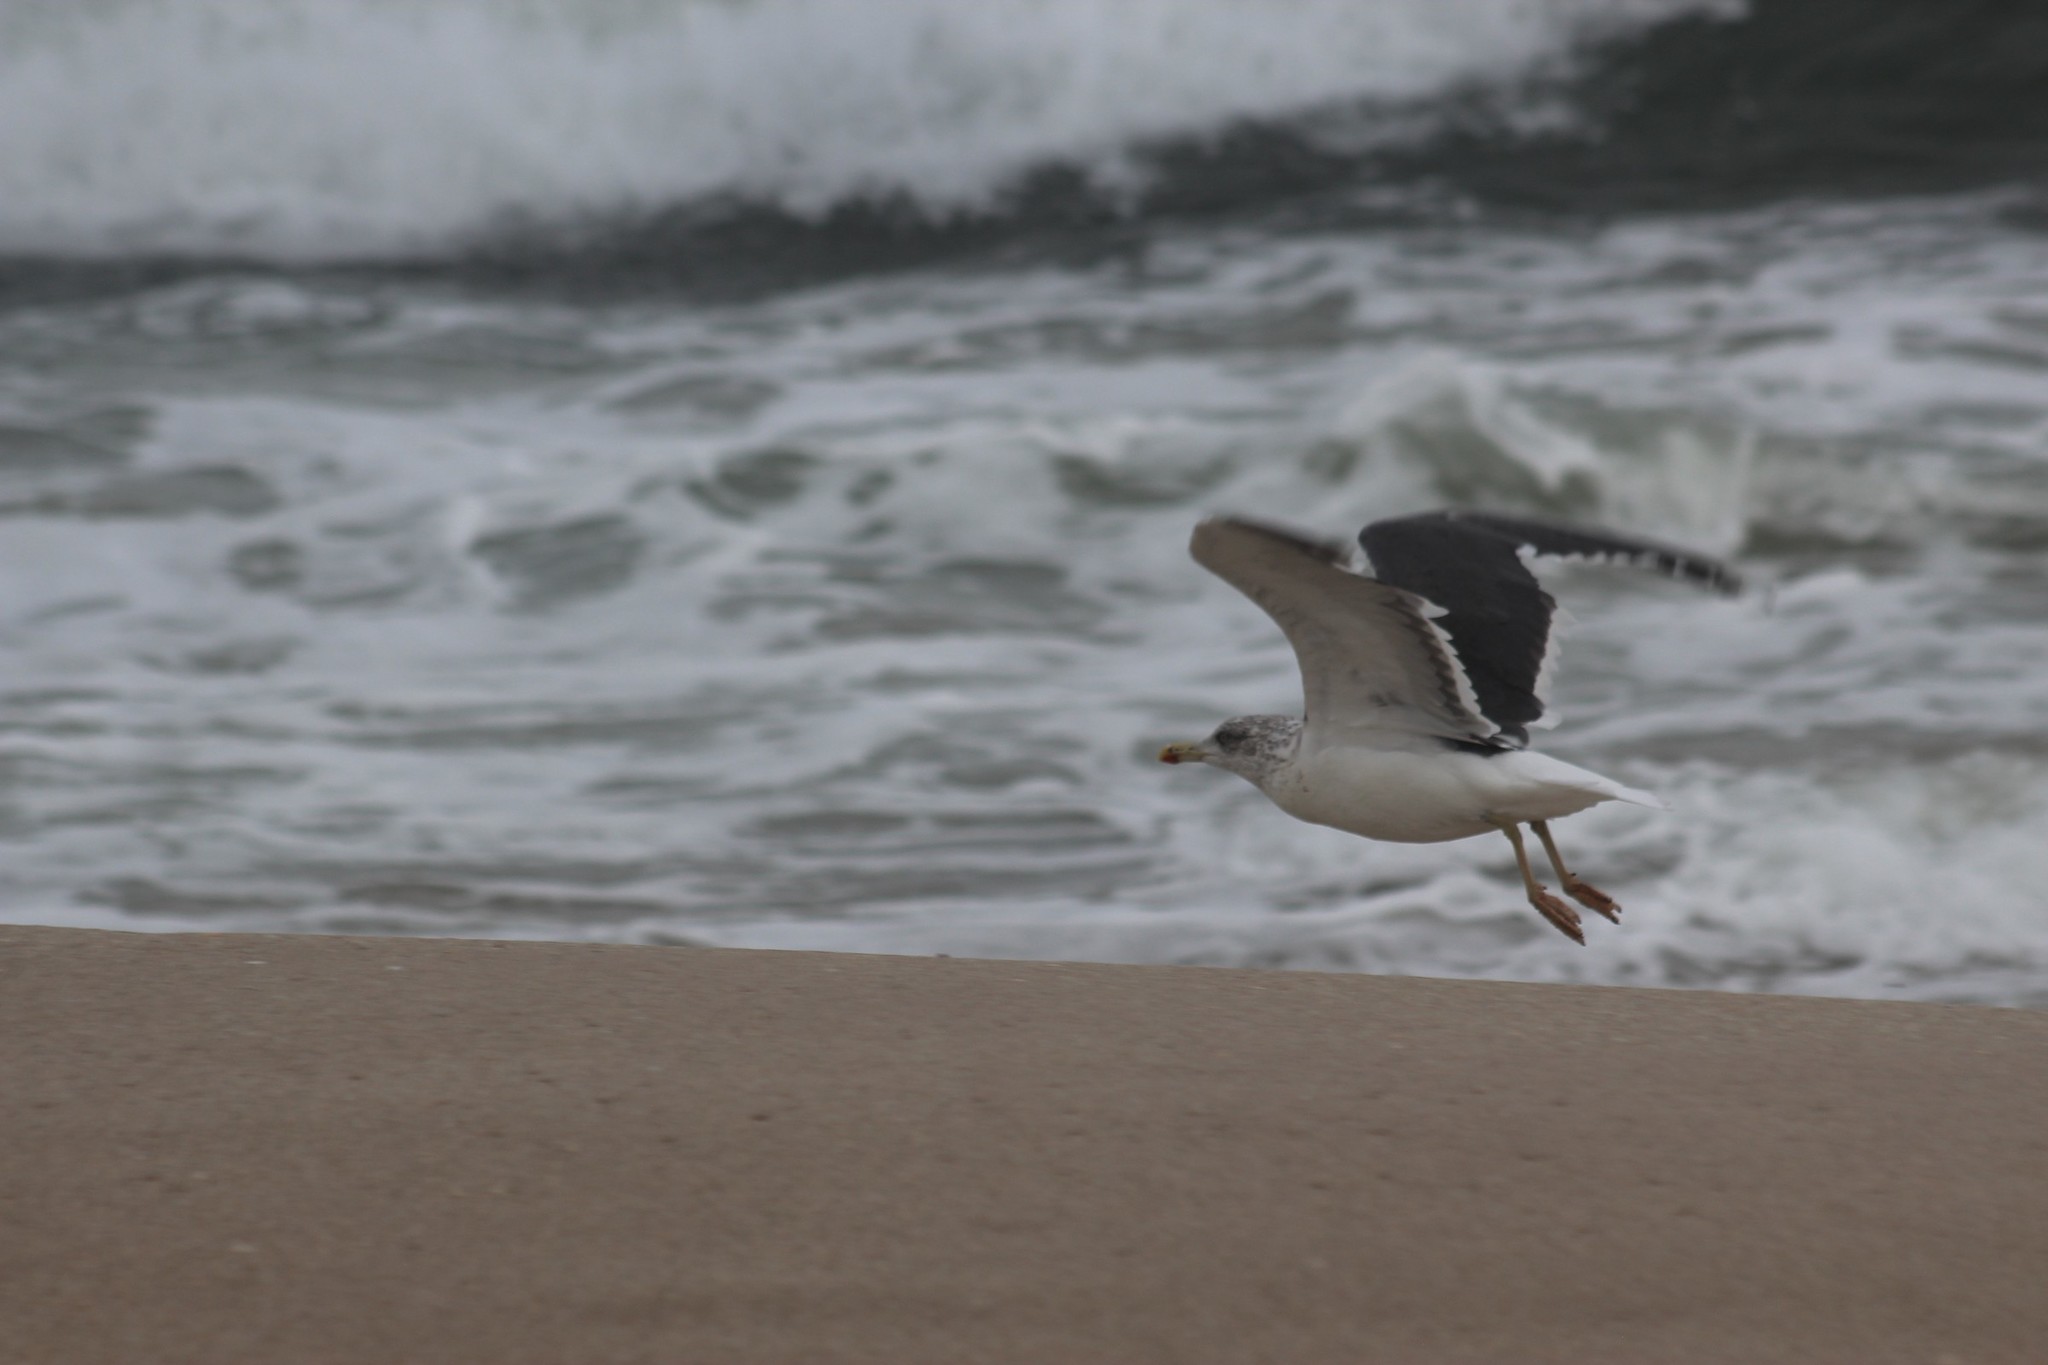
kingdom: Animalia
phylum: Chordata
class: Aves
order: Charadriiformes
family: Laridae
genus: Larus
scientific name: Larus fuscus
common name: Lesser black-backed gull
